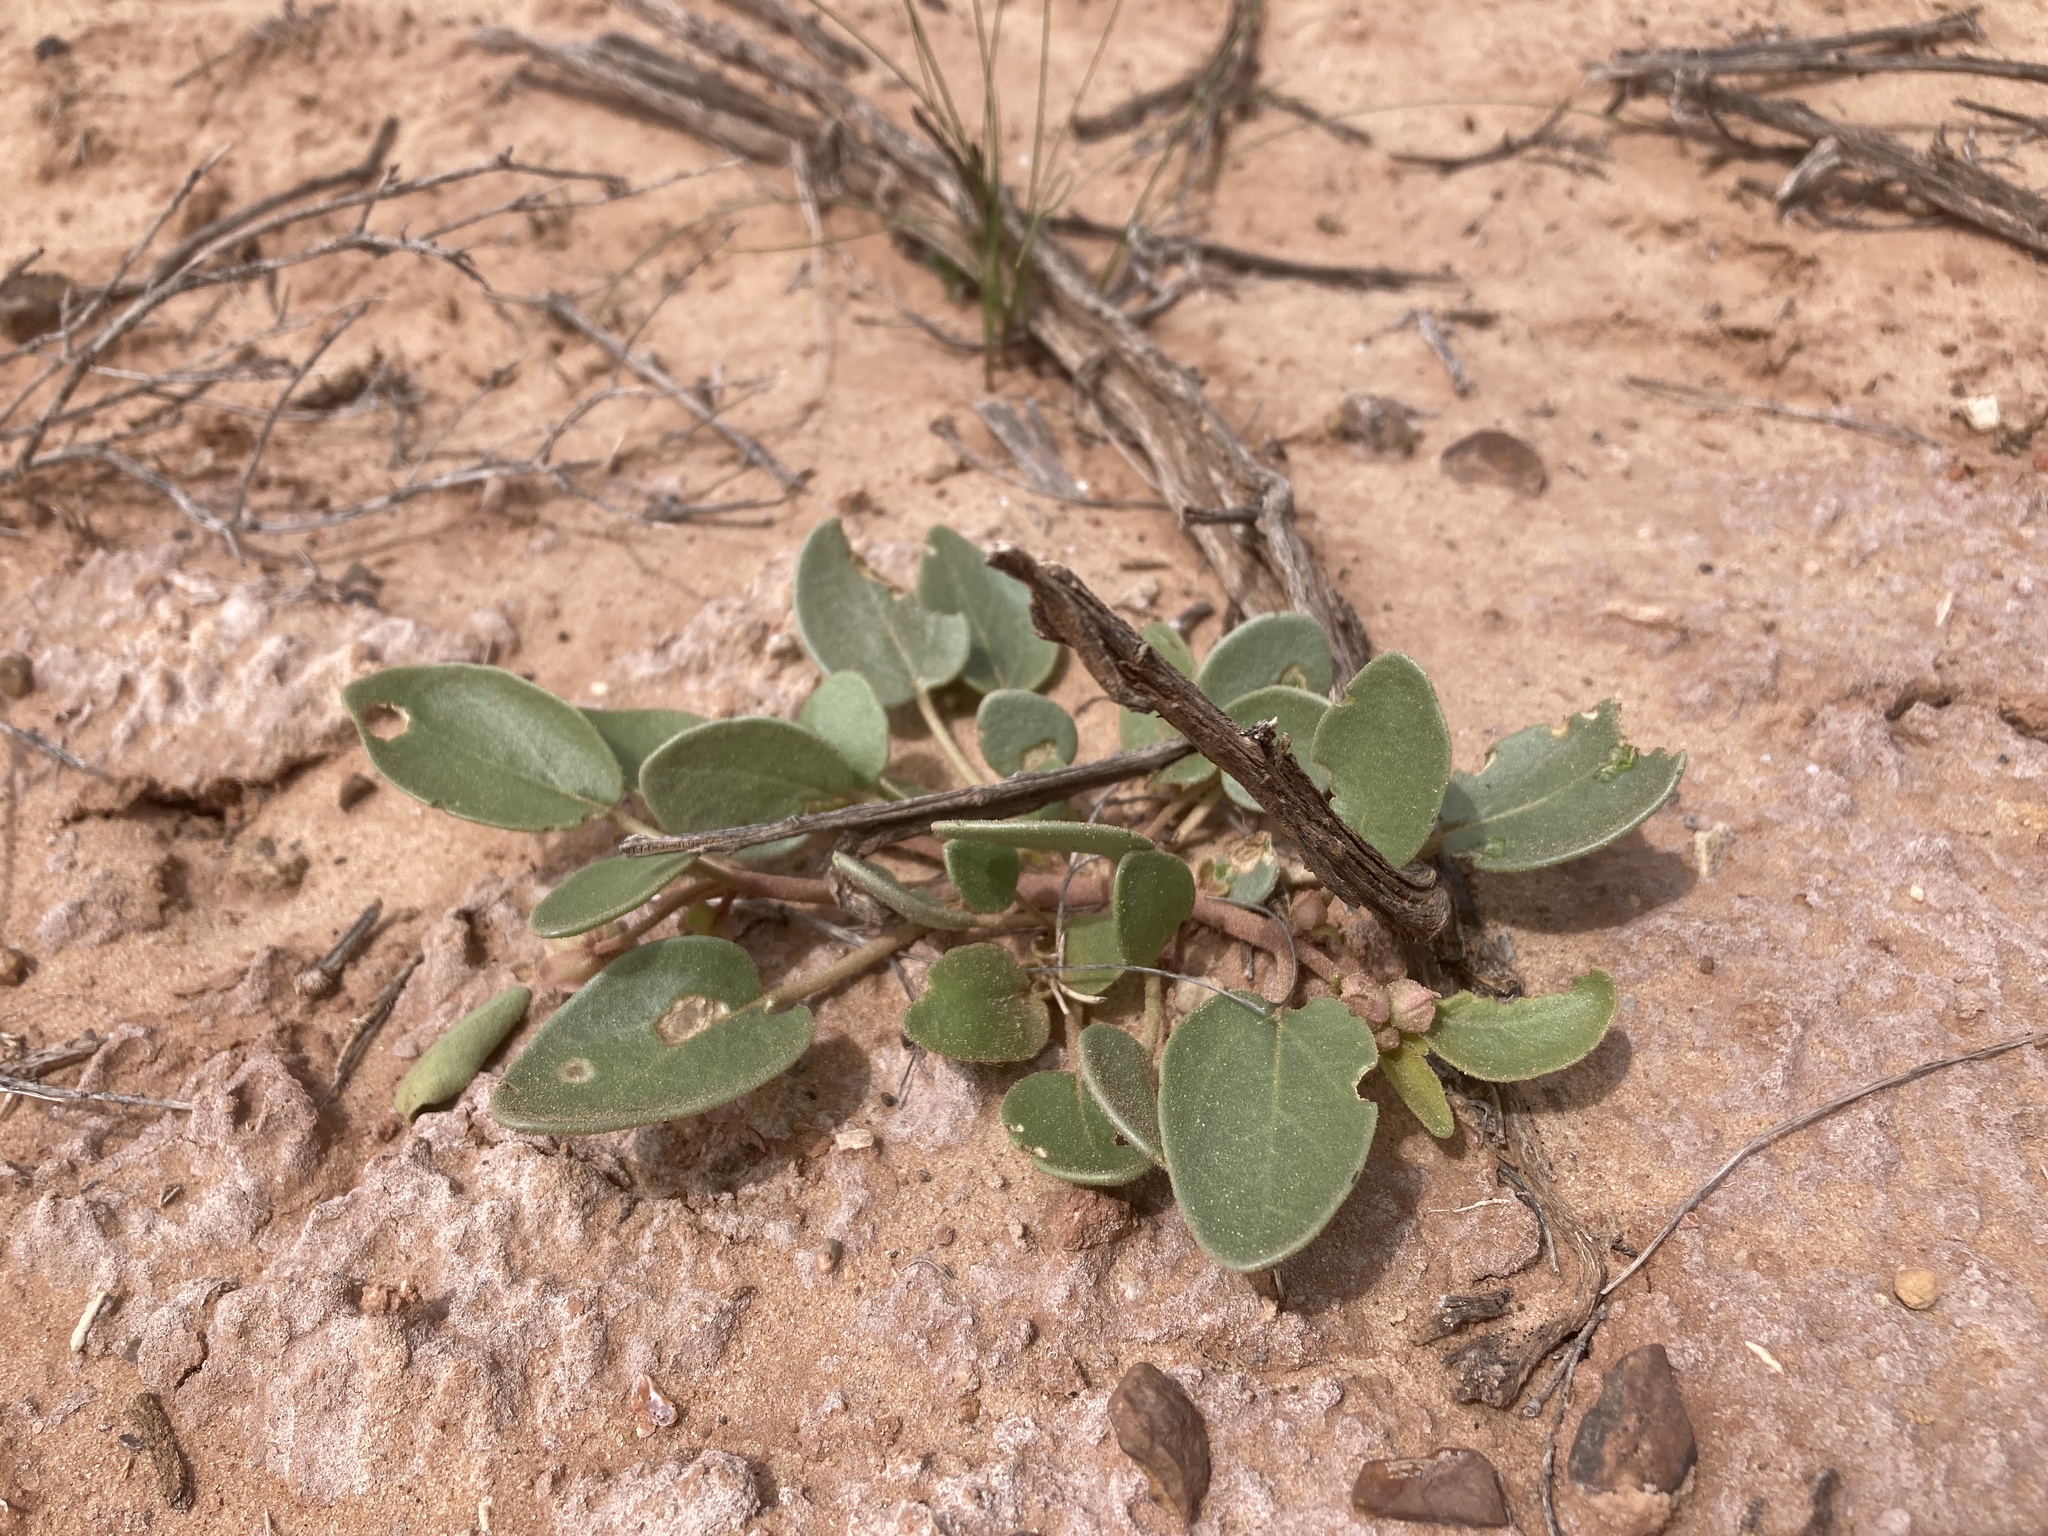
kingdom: Plantae
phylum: Tracheophyta
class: Magnoliopsida
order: Caryophyllales
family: Nyctaginaceae
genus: Abronia
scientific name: Abronia elliptica
